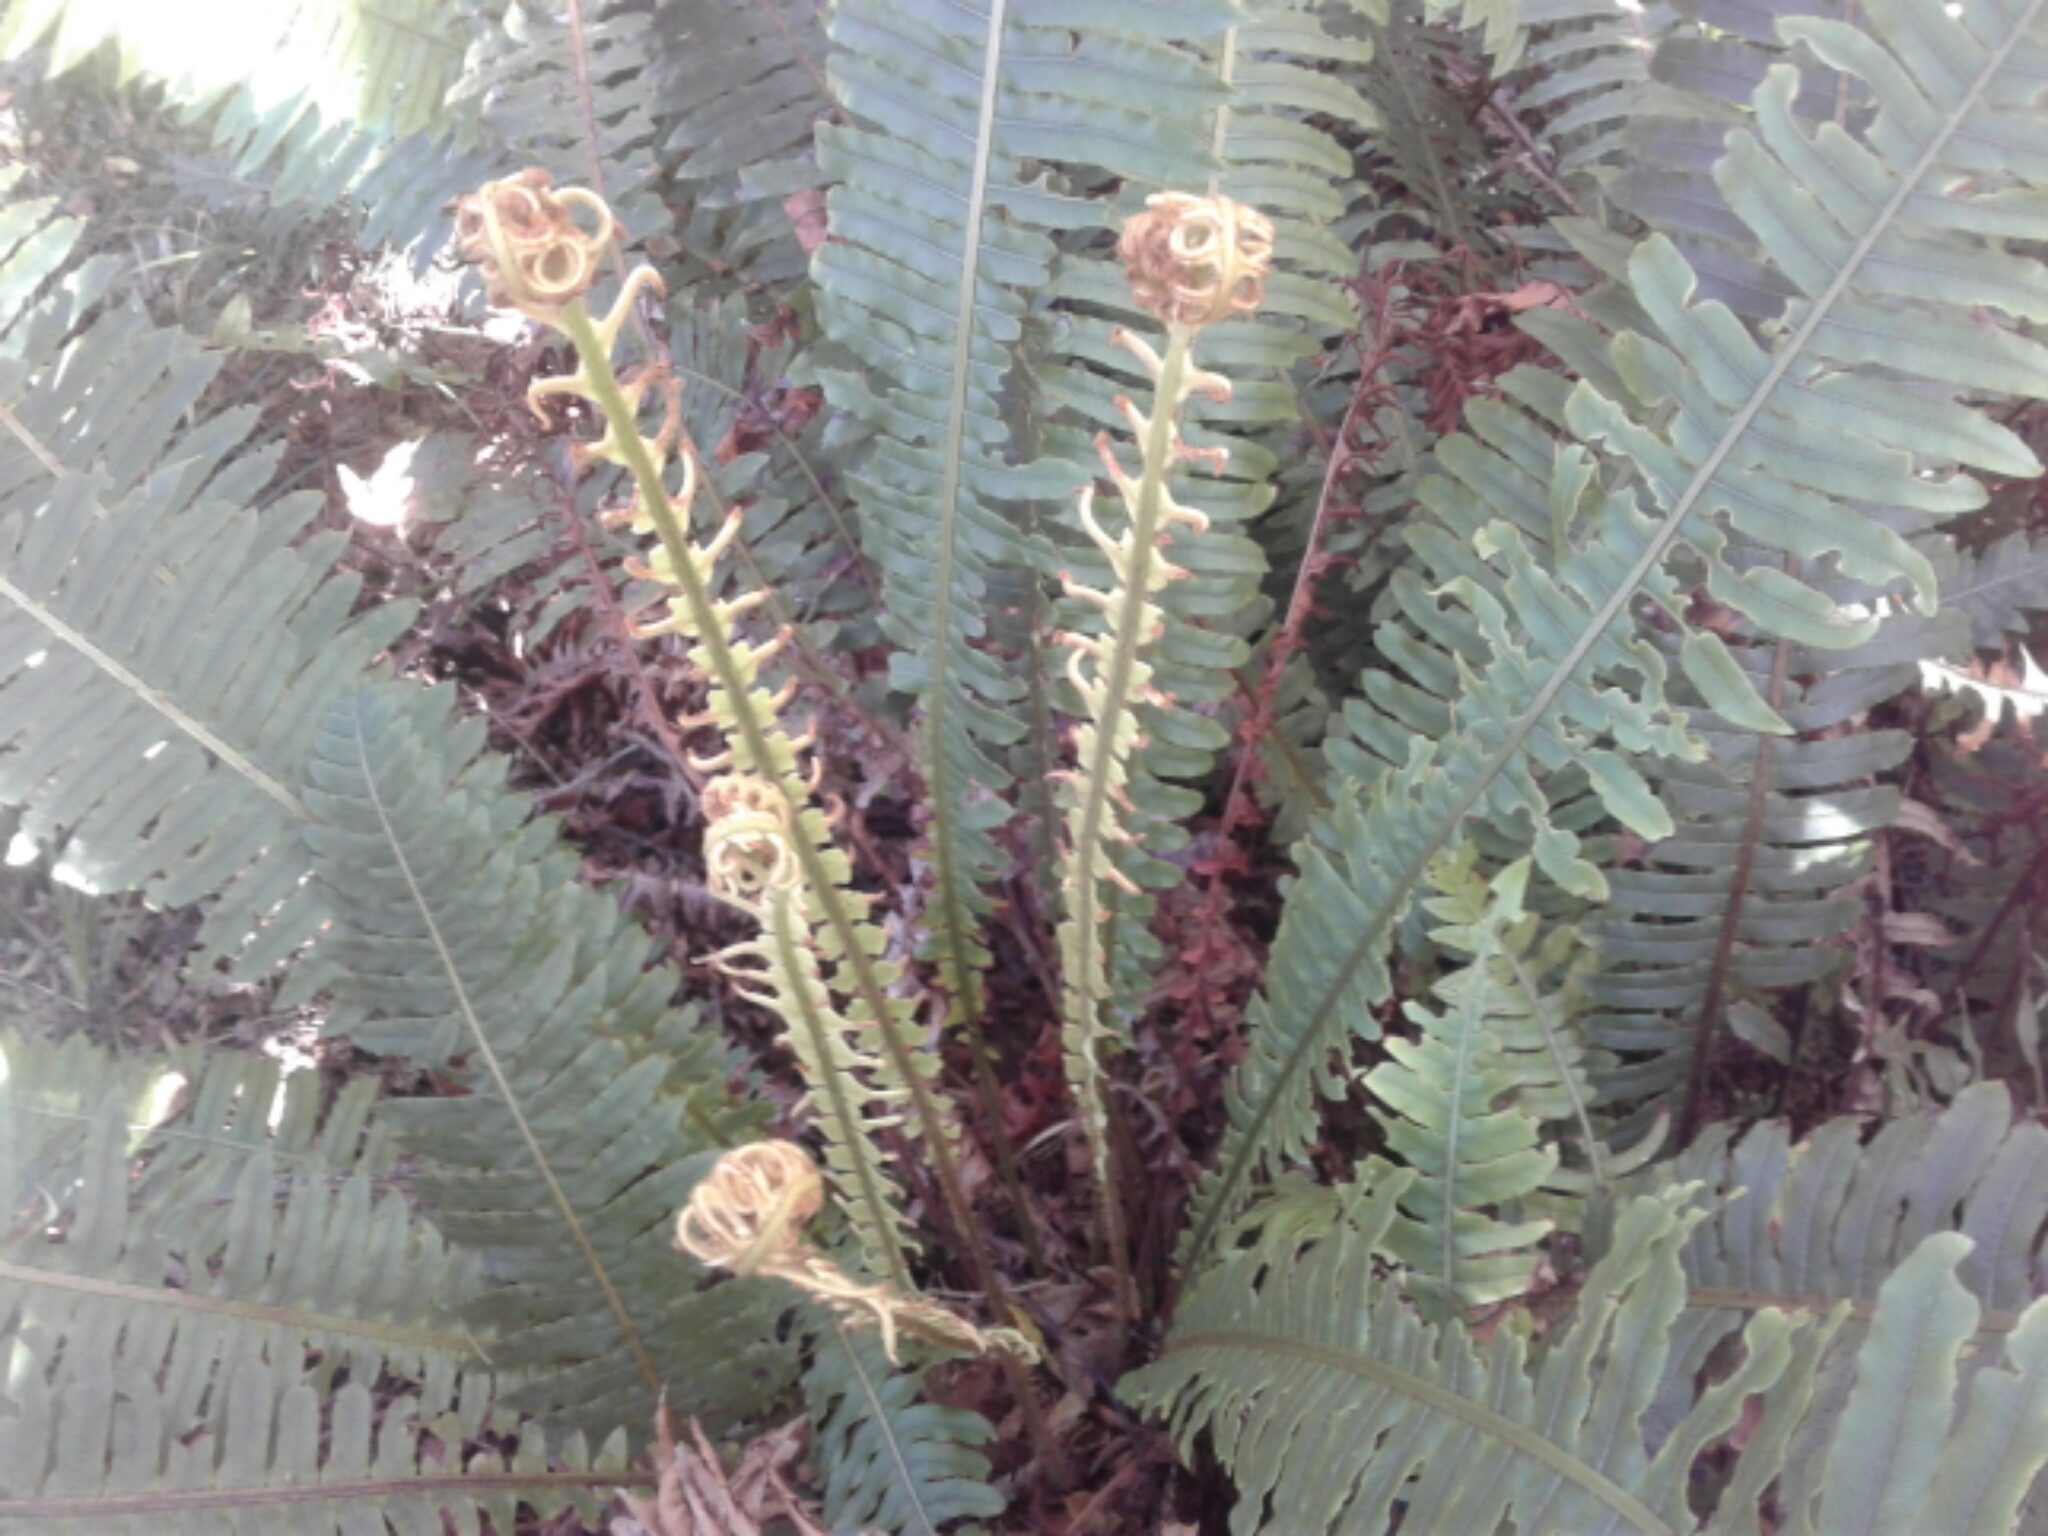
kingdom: Plantae
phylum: Tracheophyta
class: Polypodiopsida
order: Polypodiales
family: Blechnaceae
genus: Lomaria
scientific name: Lomaria discolor
